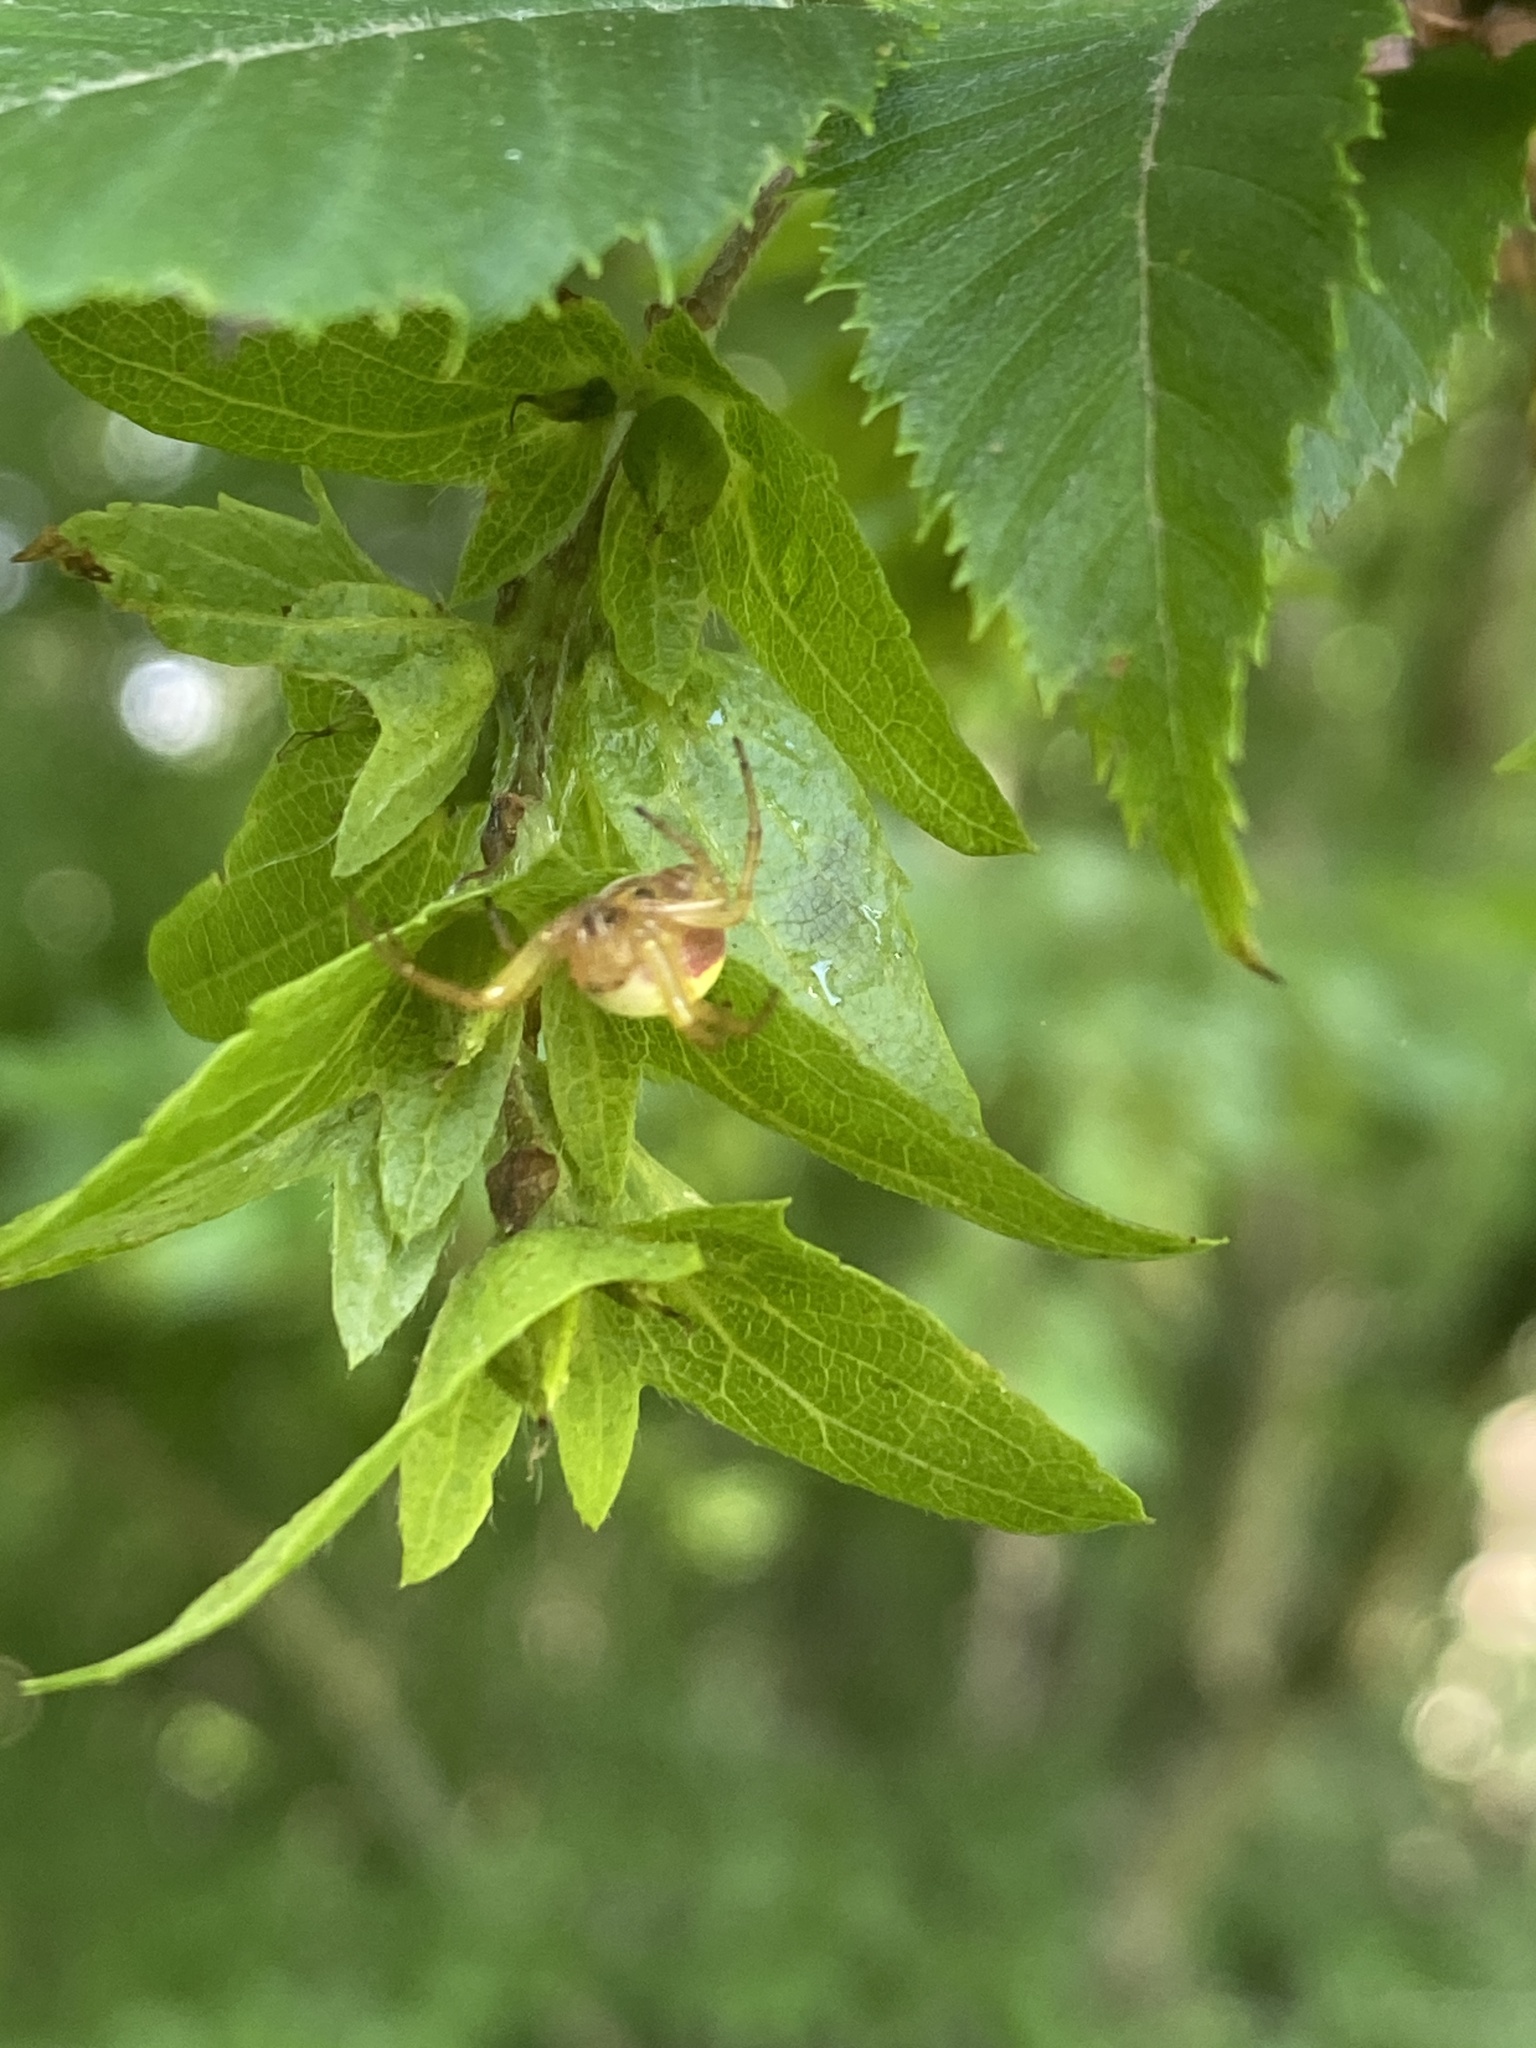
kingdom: Animalia
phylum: Arthropoda
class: Arachnida
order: Araneae
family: Araneidae
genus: Araniella
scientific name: Araniella displicata
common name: Sixspotted orb weaver
